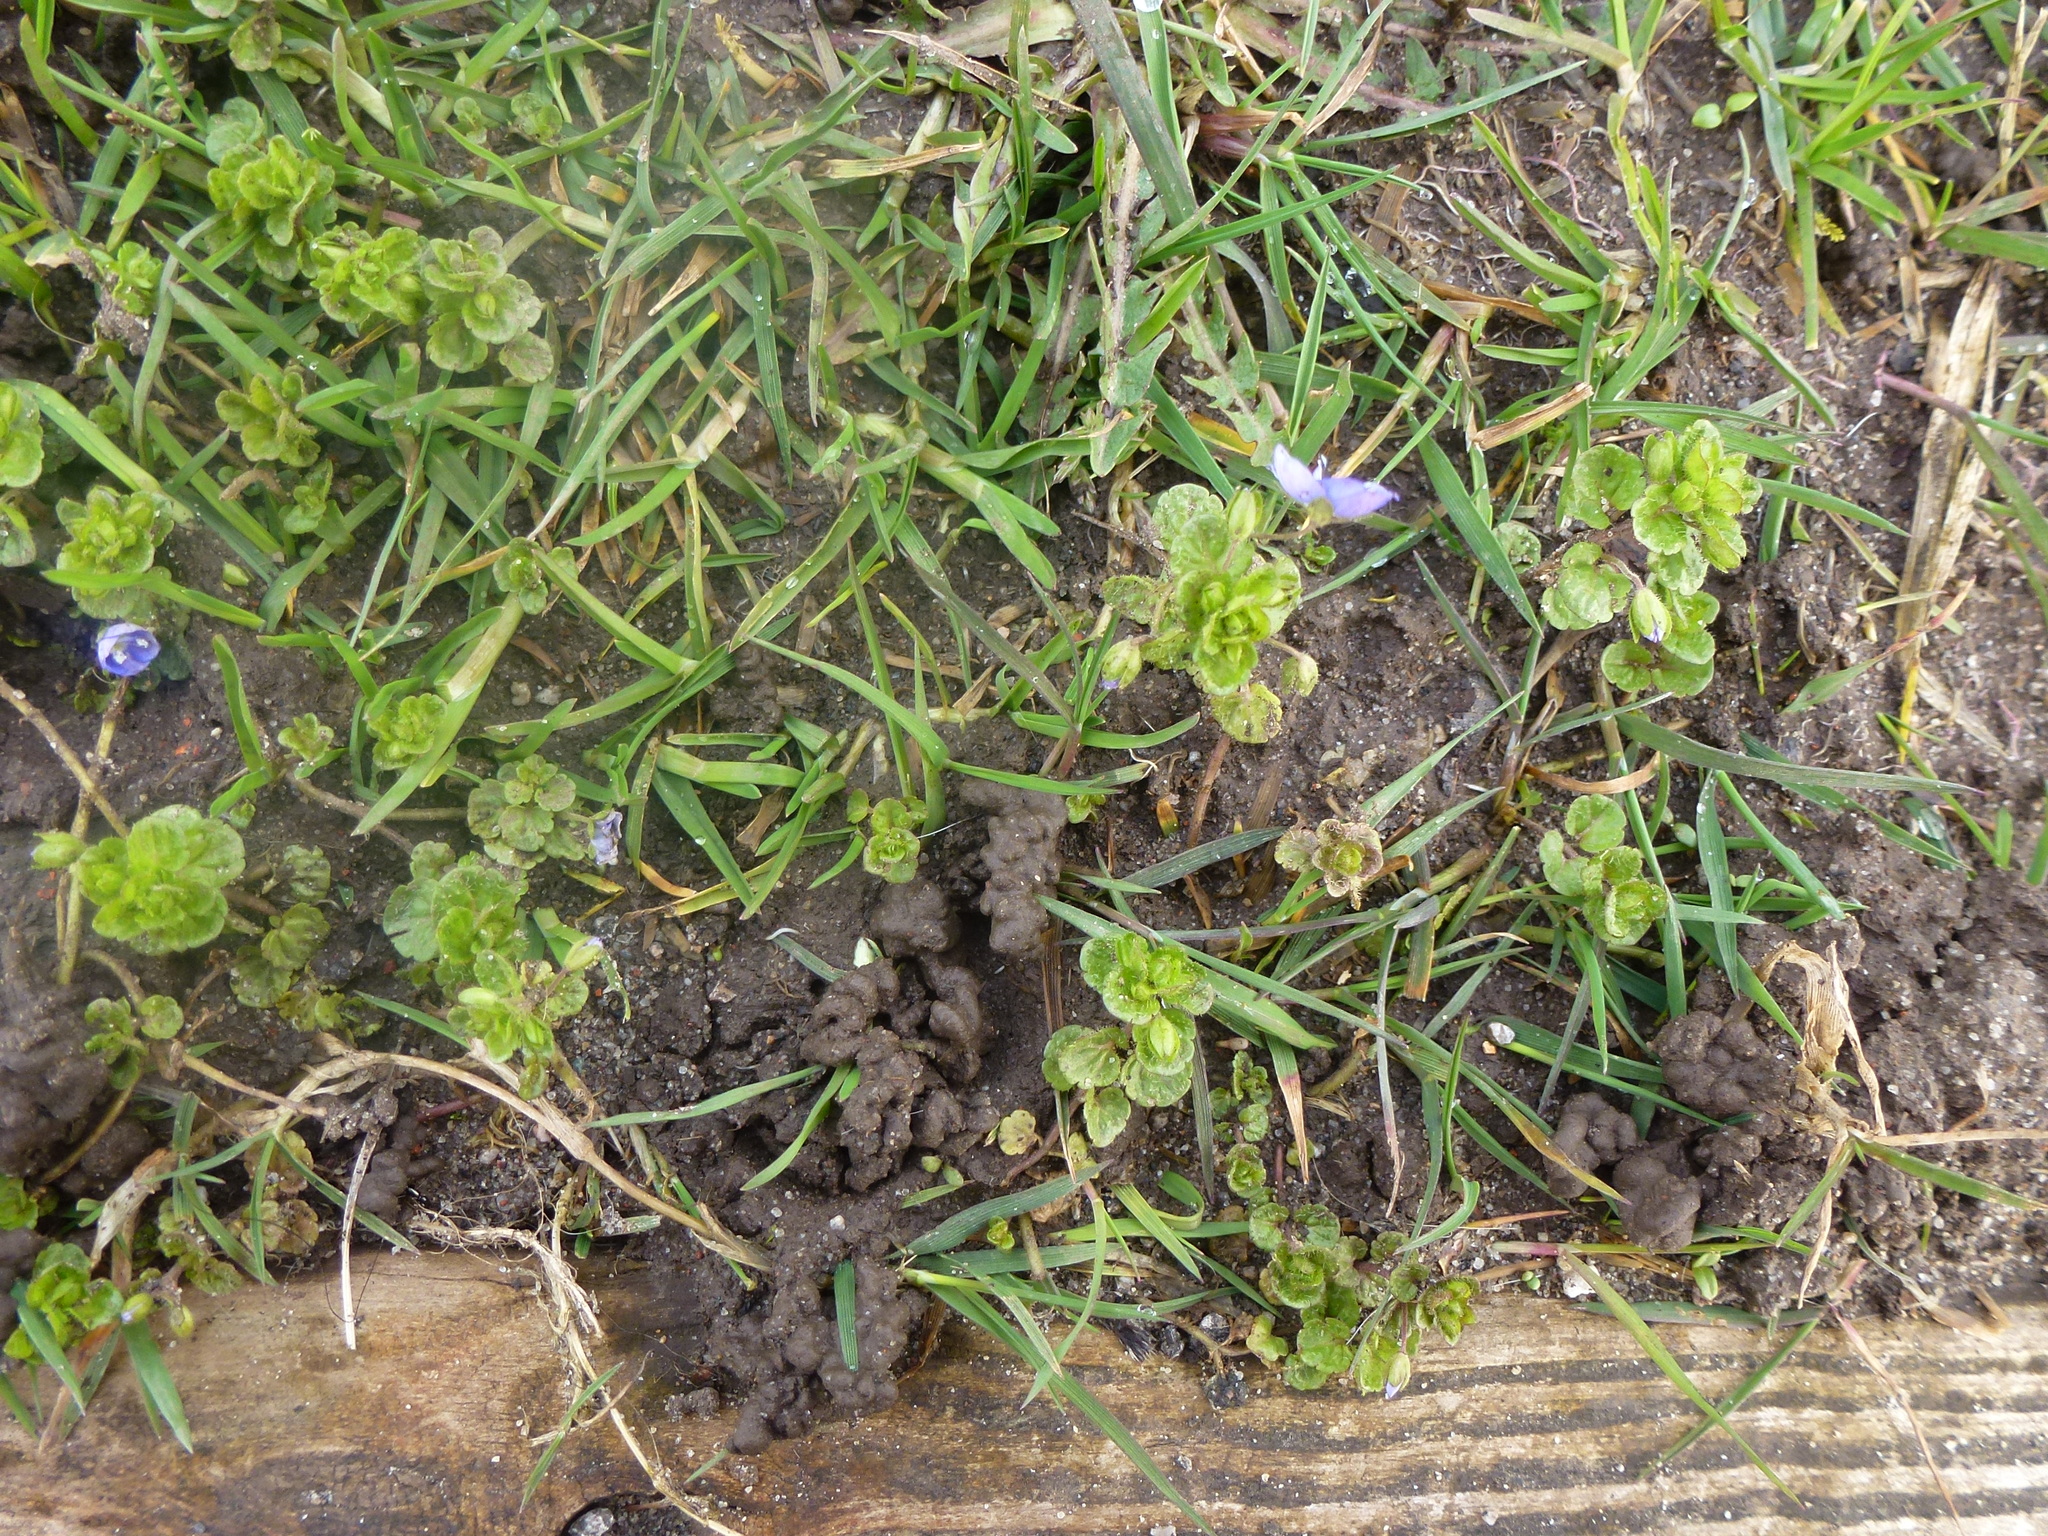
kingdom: Plantae
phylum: Tracheophyta
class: Magnoliopsida
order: Lamiales
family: Plantaginaceae
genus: Veronica
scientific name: Veronica filiformis
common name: Slender speedwell
